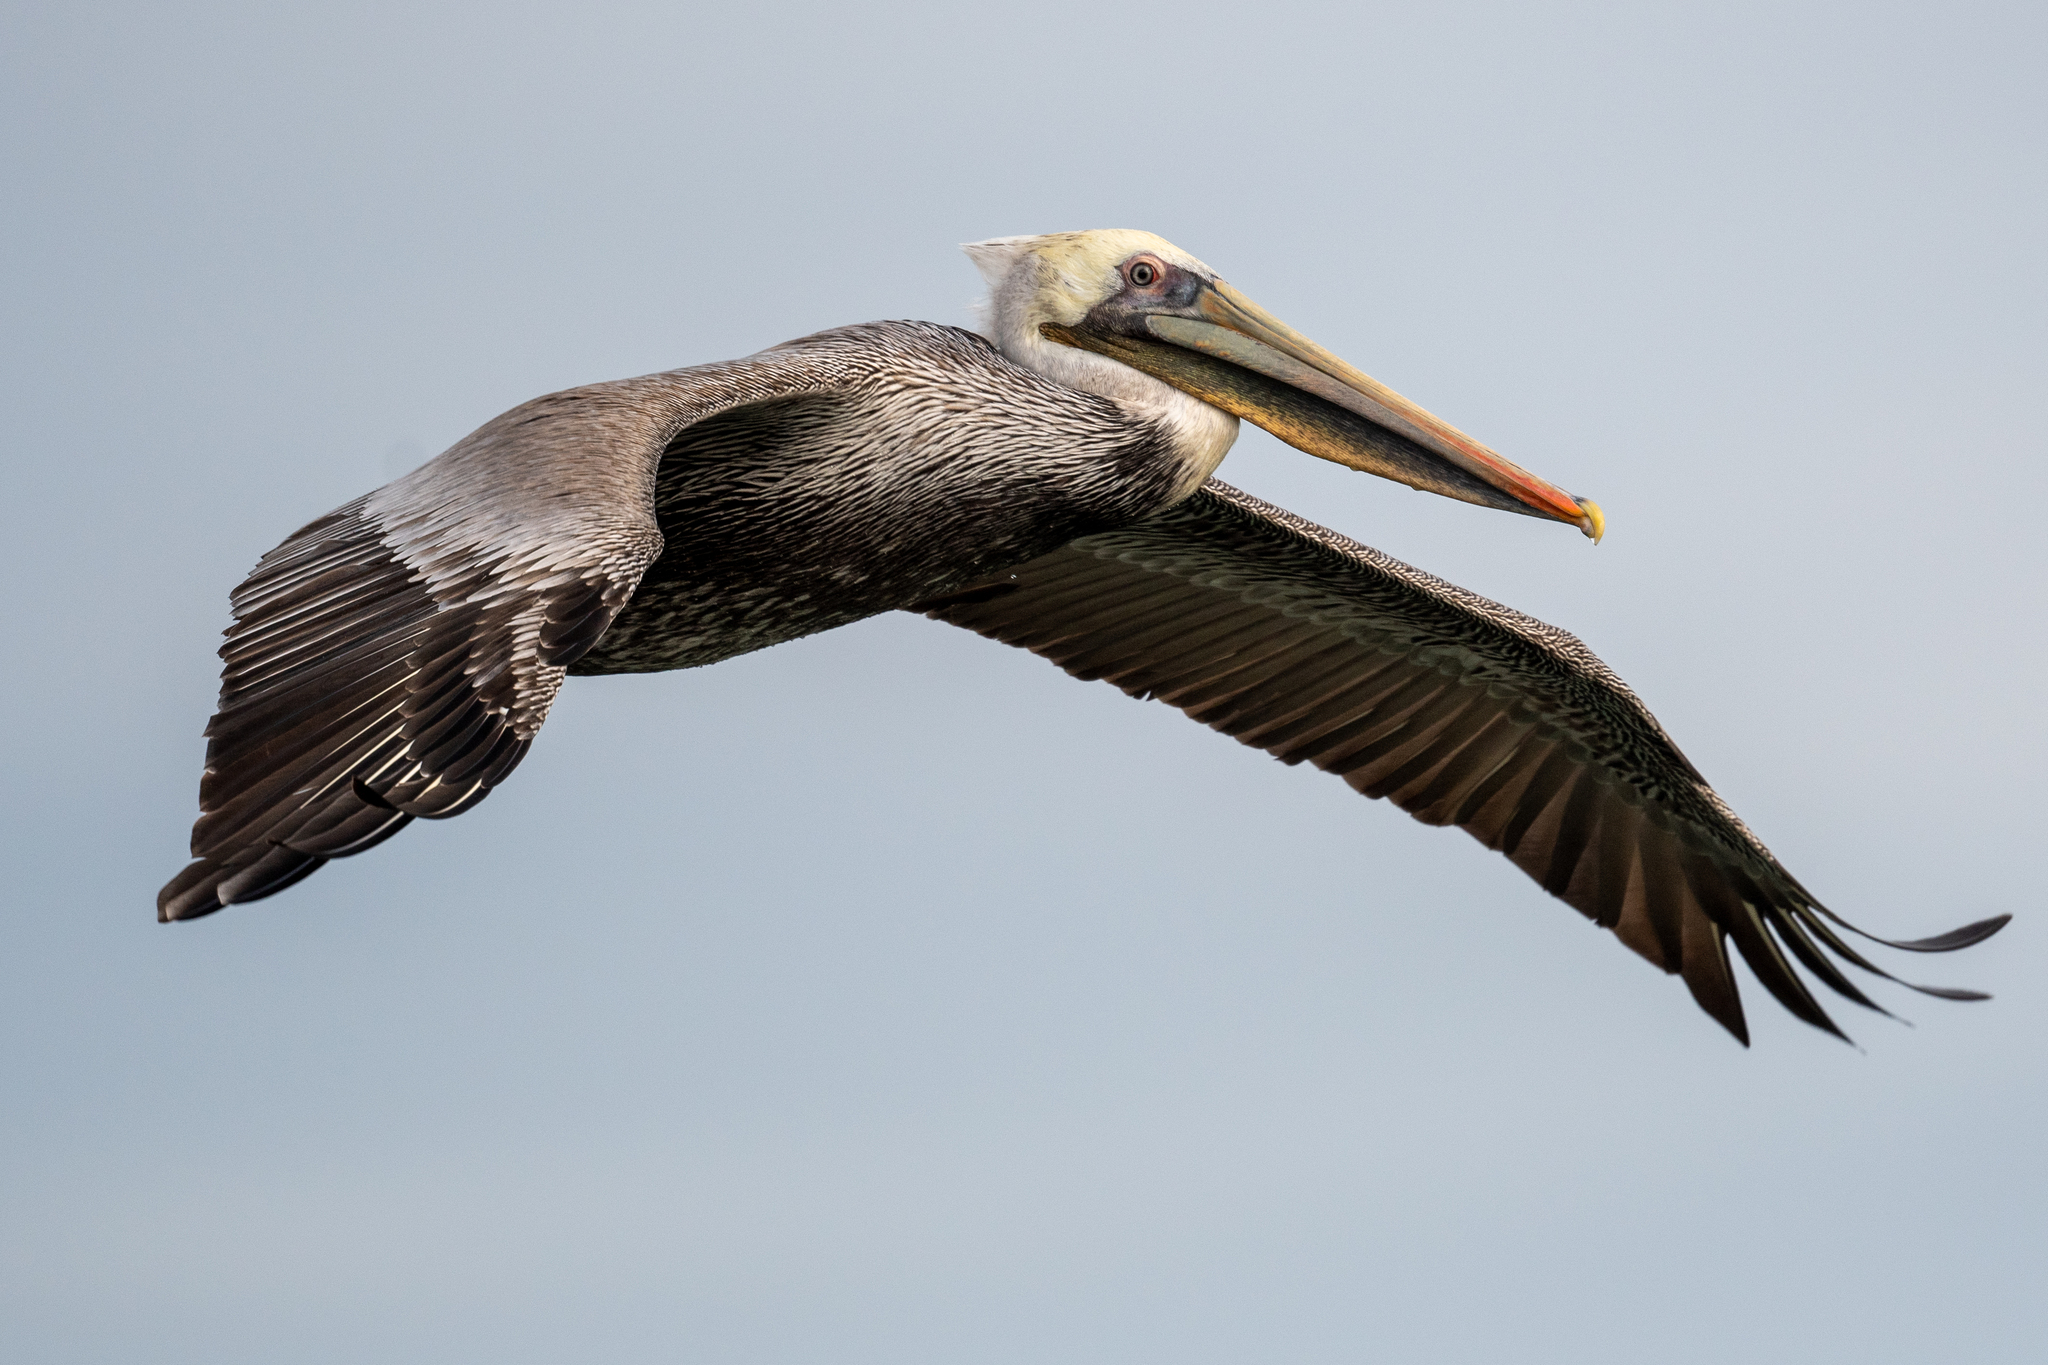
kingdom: Animalia
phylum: Chordata
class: Aves
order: Pelecaniformes
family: Pelecanidae
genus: Pelecanus
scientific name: Pelecanus occidentalis
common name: Brown pelican
